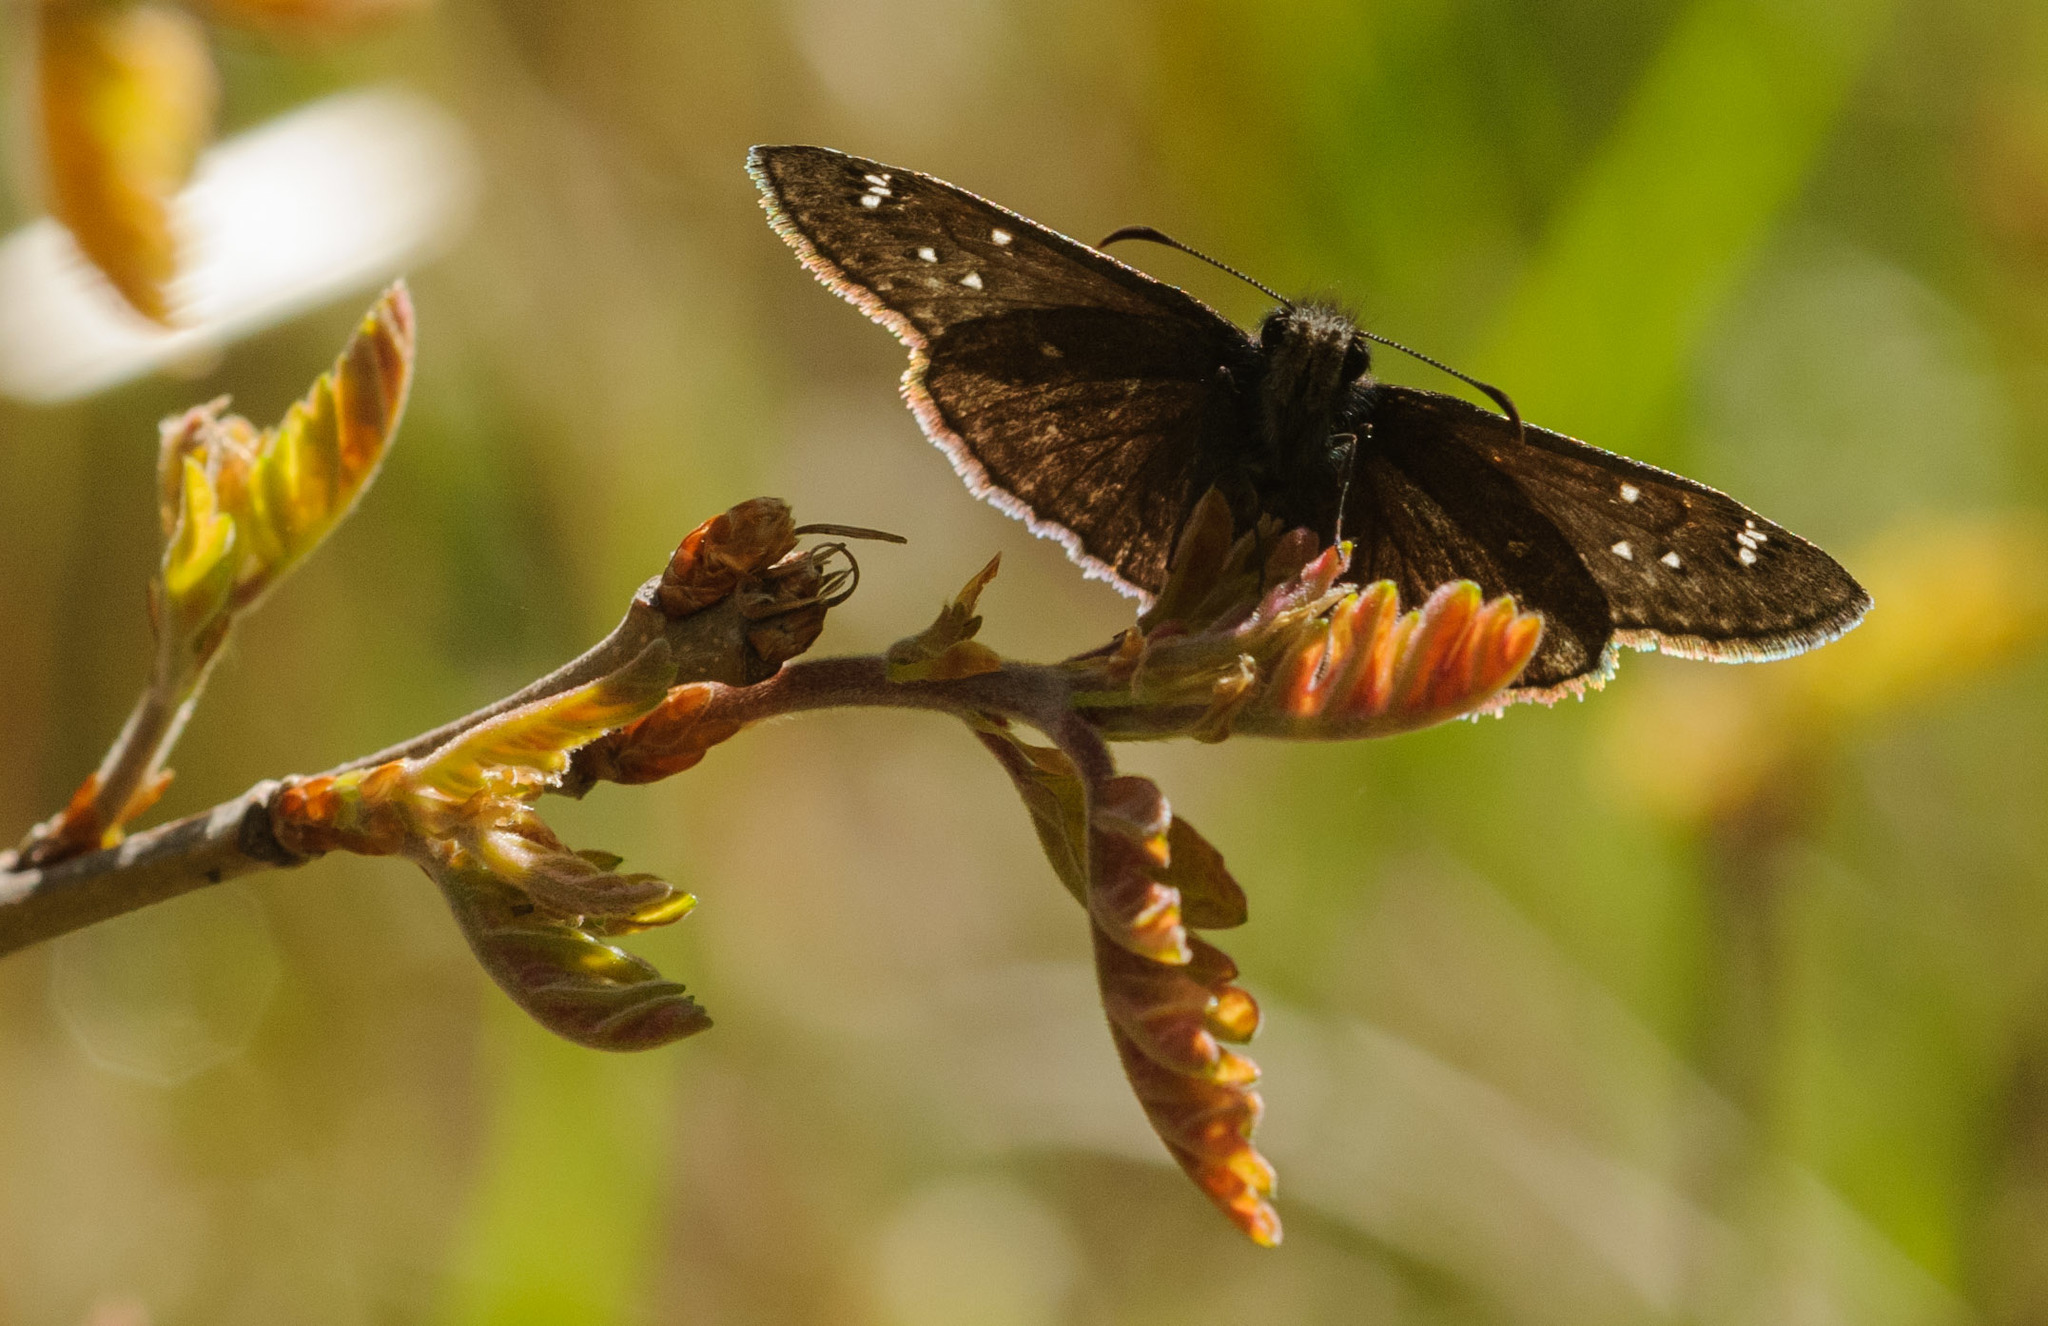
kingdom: Animalia
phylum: Arthropoda
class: Insecta
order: Lepidoptera
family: Hesperiidae
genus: Erynnis
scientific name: Erynnis telemachus
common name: Rocky mountain duskywing
